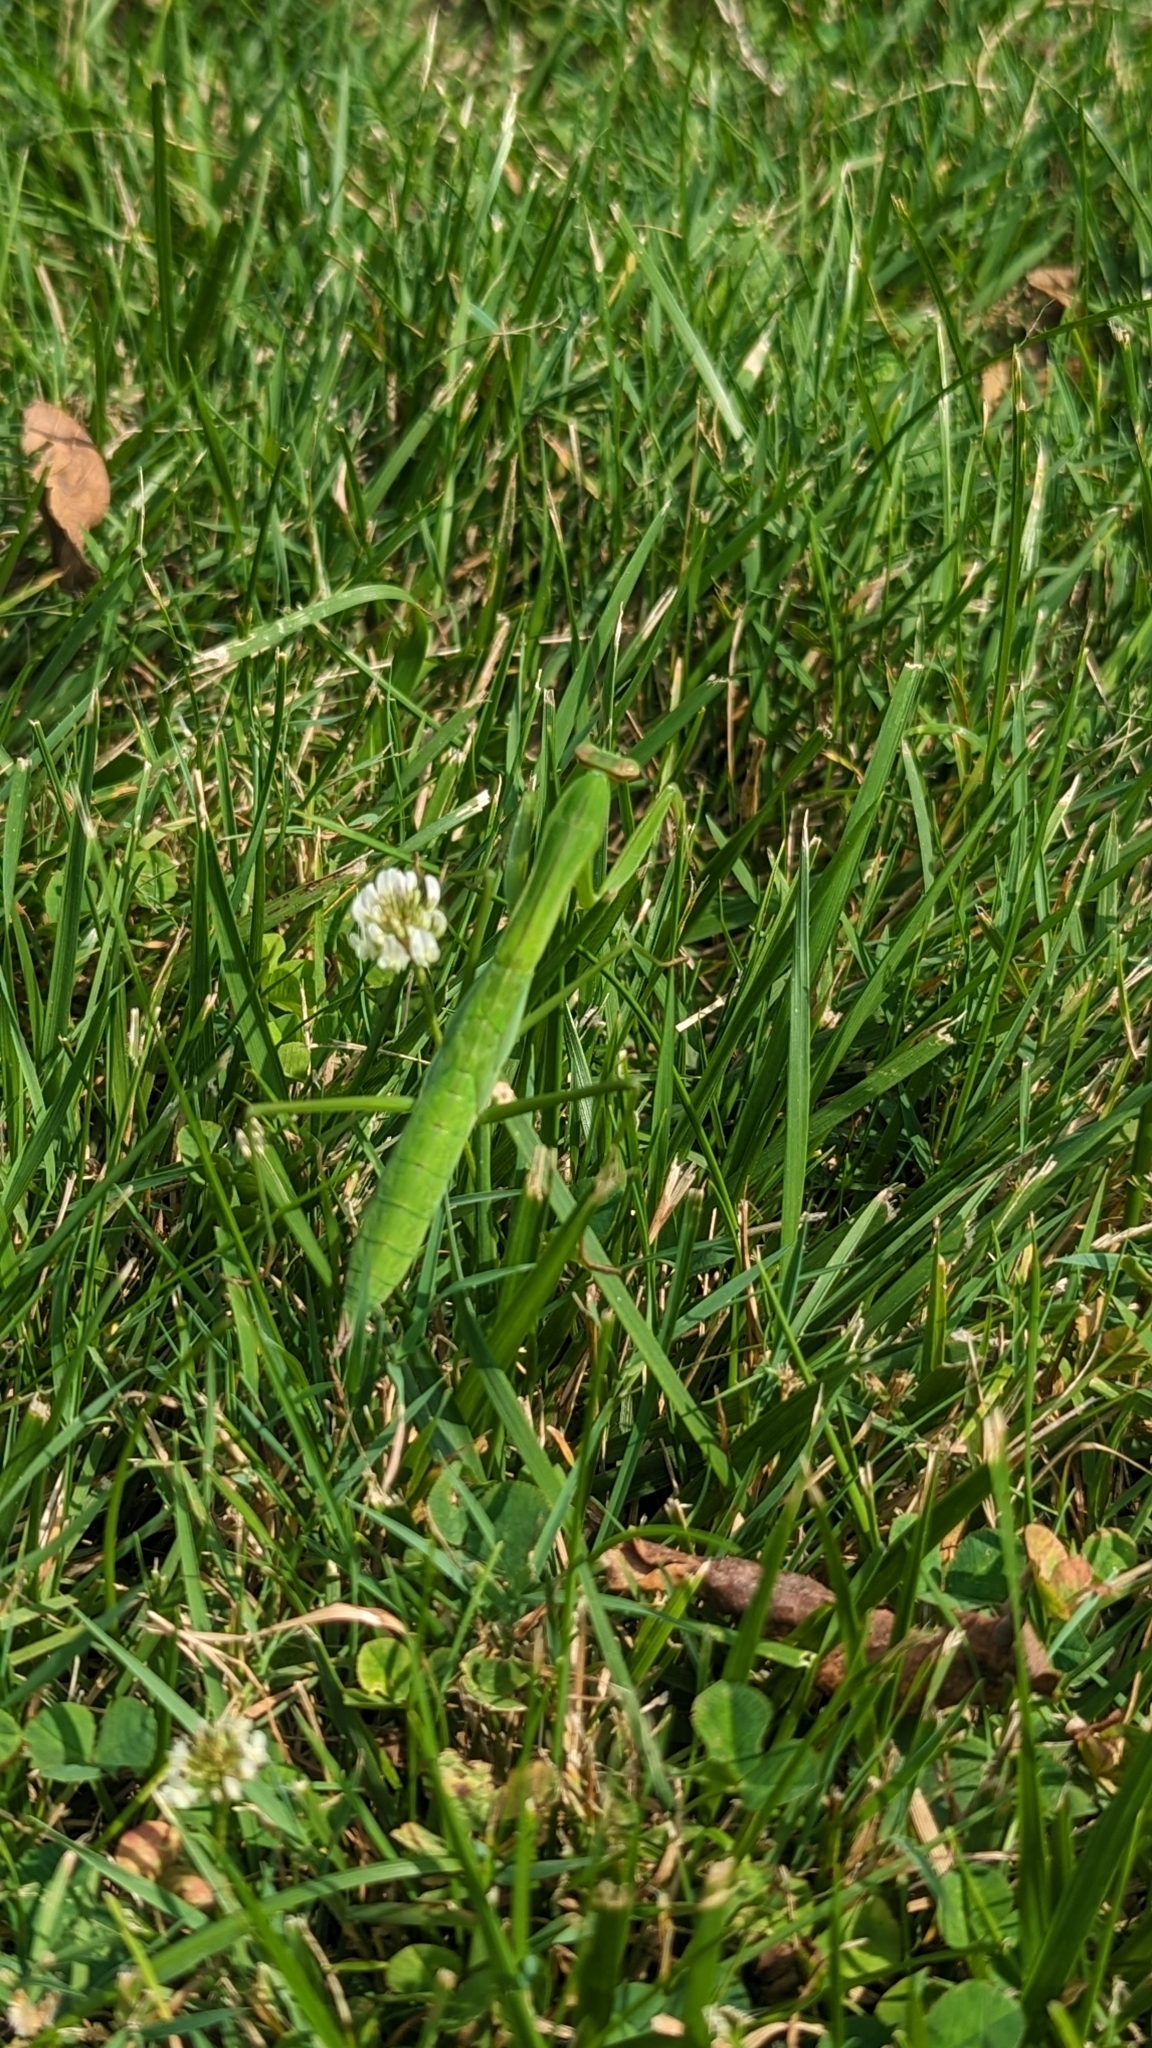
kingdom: Animalia
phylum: Arthropoda
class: Insecta
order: Mantodea
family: Mantidae
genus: Tenodera
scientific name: Tenodera sinensis
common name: Chinese mantis
